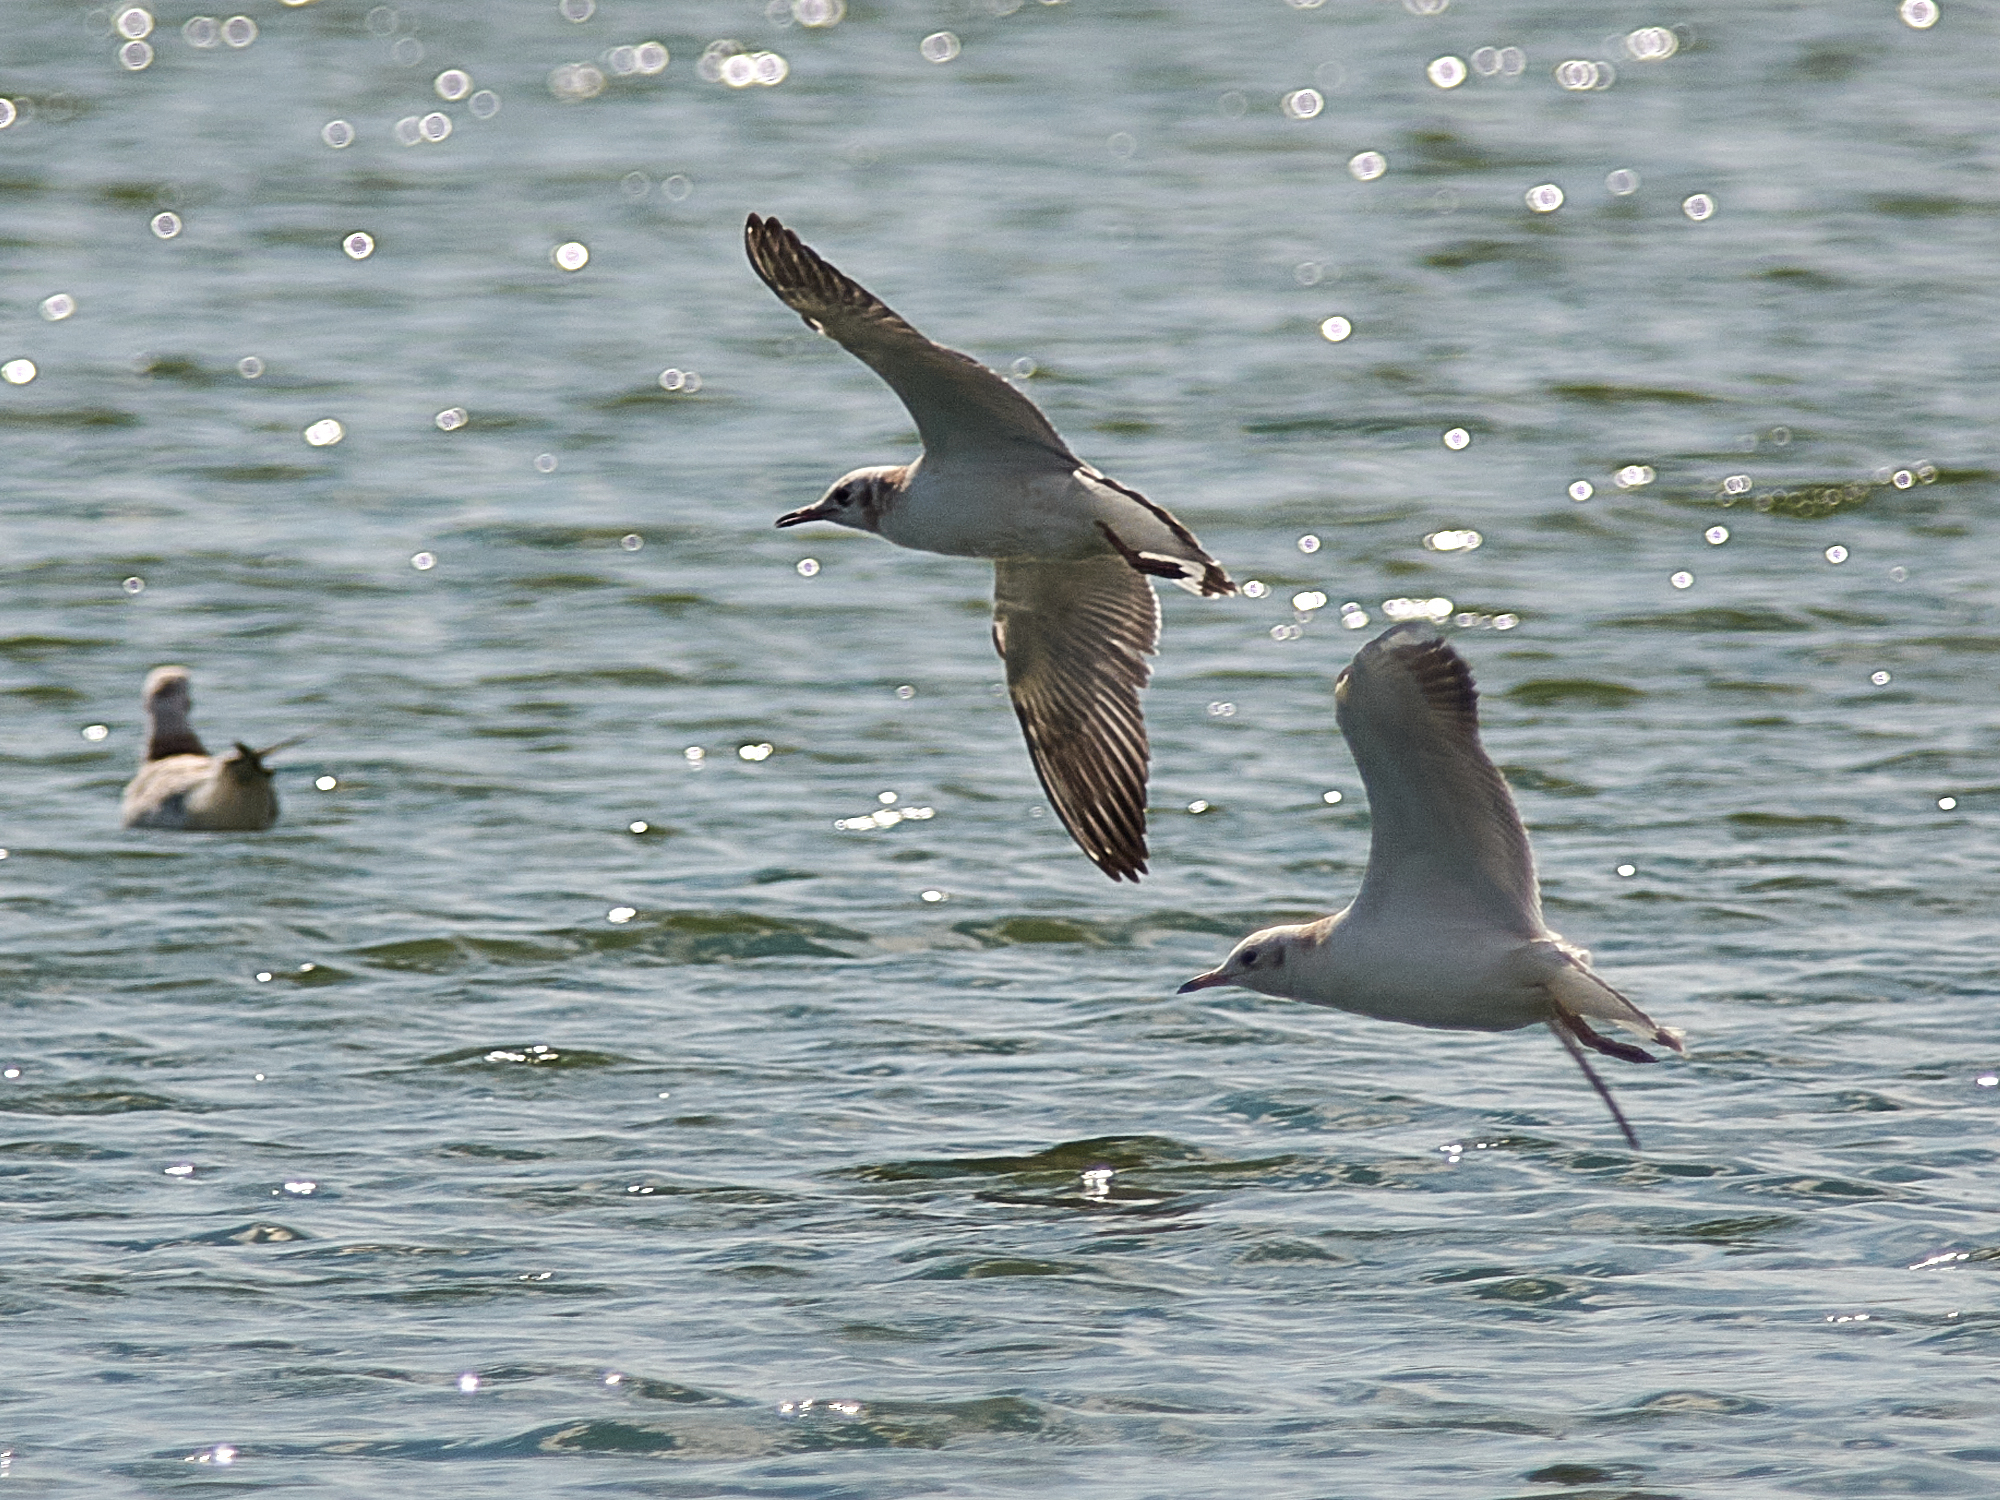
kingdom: Animalia
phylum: Chordata
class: Aves
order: Charadriiformes
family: Laridae
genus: Chroicocephalus
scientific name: Chroicocephalus ridibundus
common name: Black-headed gull
